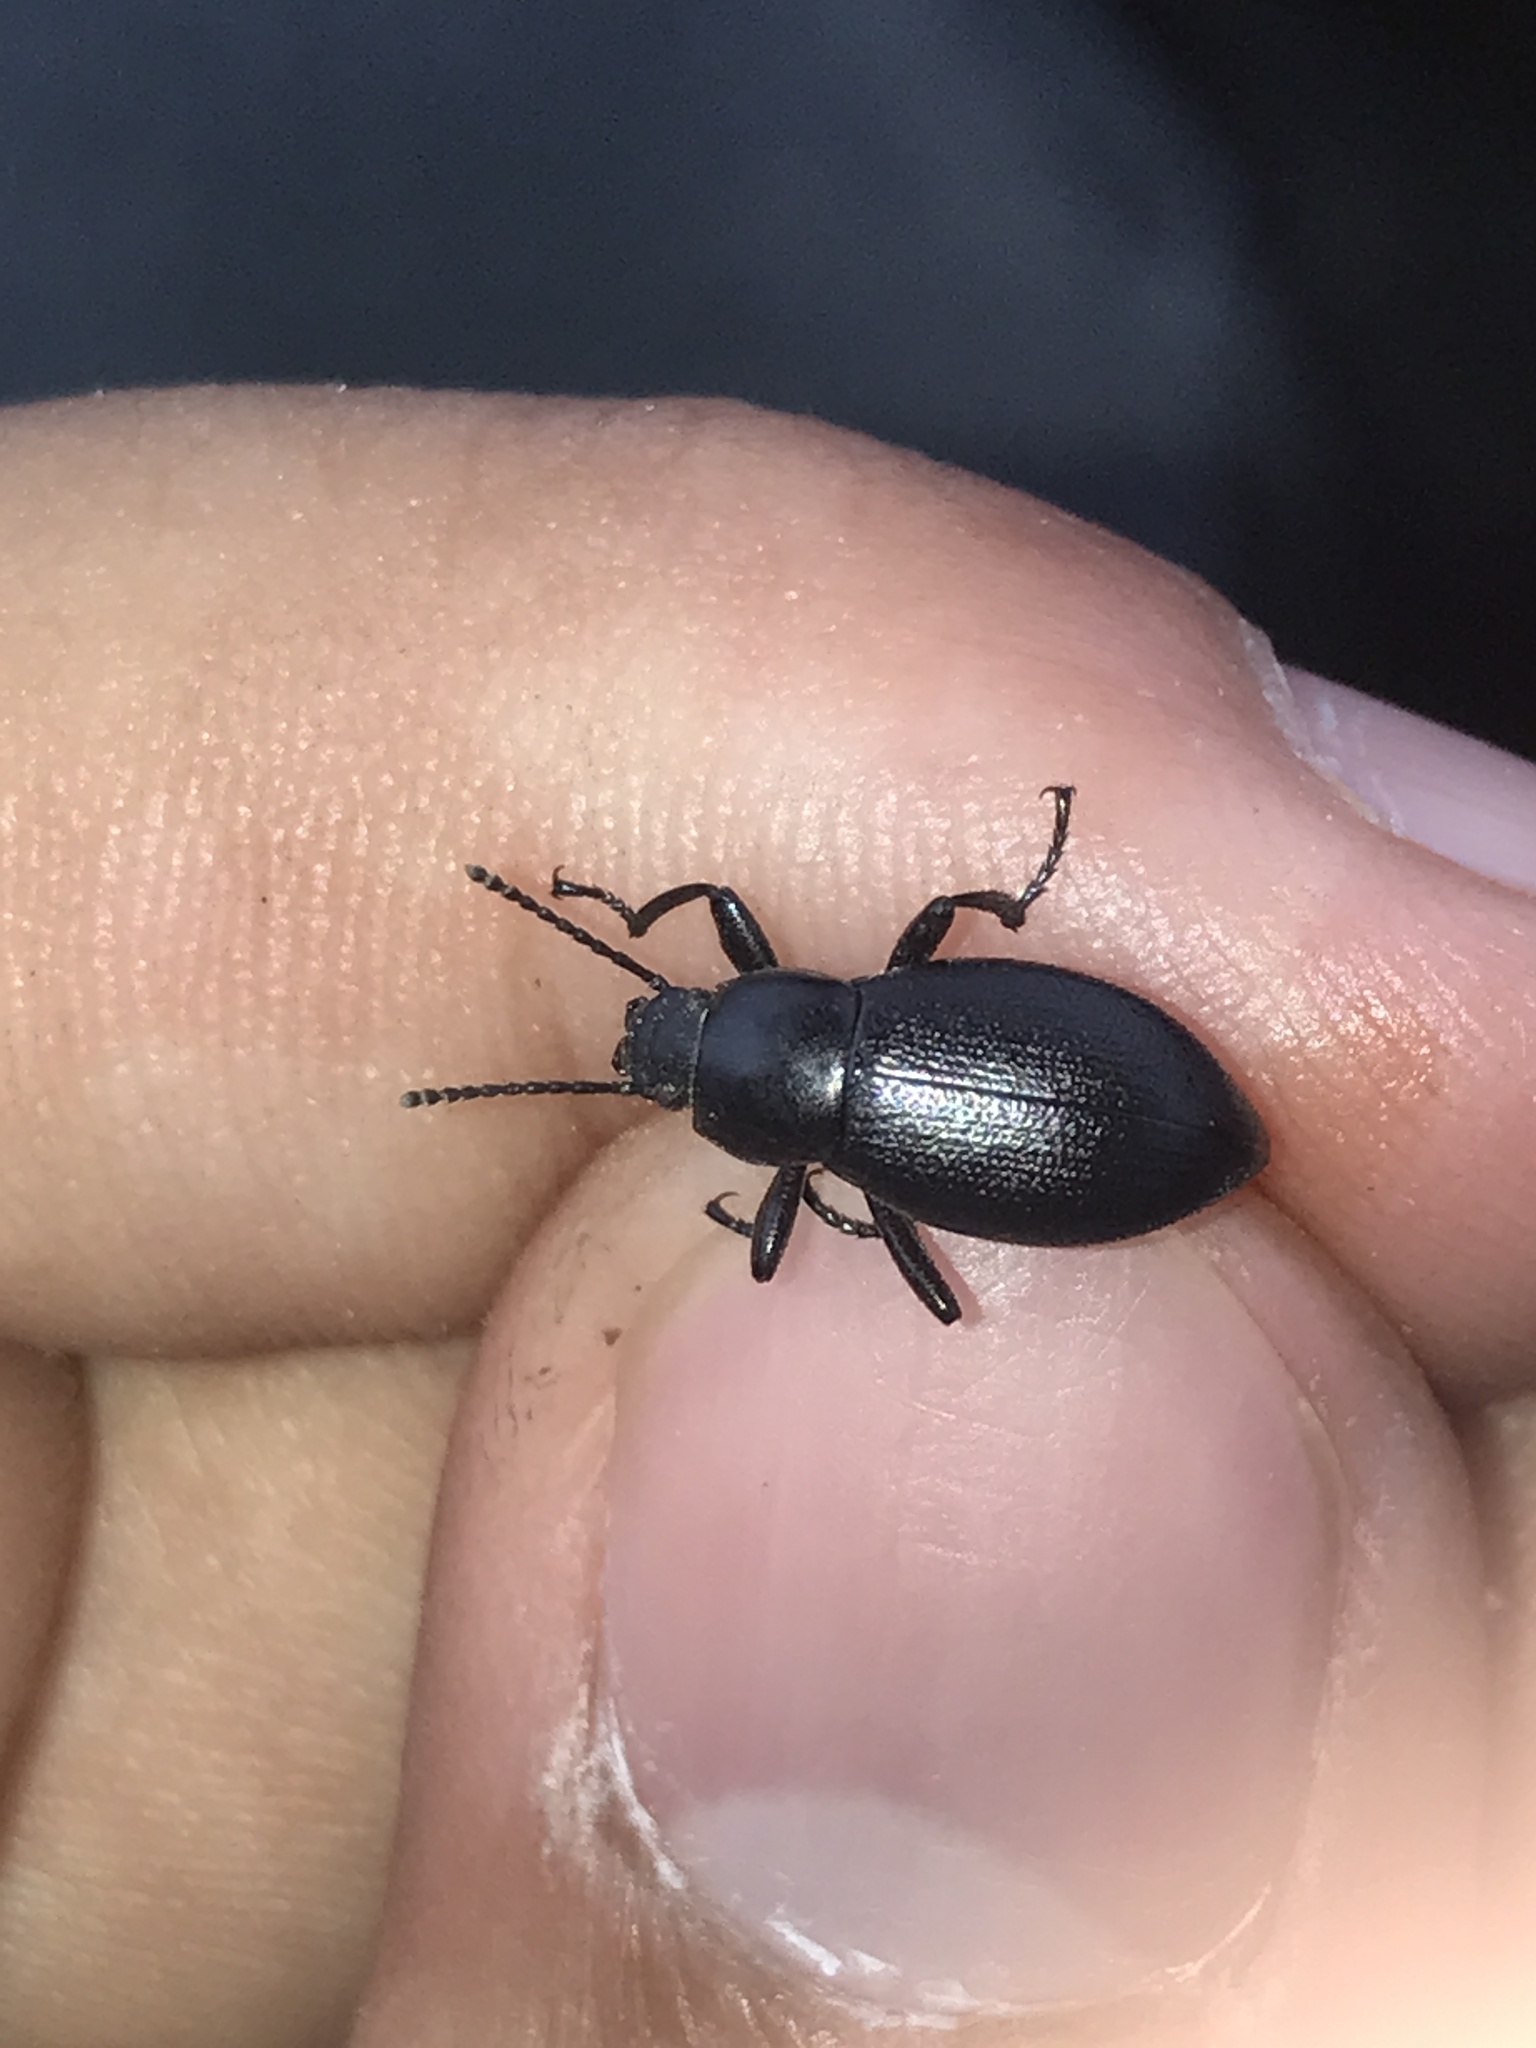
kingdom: Animalia
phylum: Arthropoda
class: Insecta
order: Coleoptera
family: Tenebrionidae
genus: Eleodes
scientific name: Eleodes extricata
